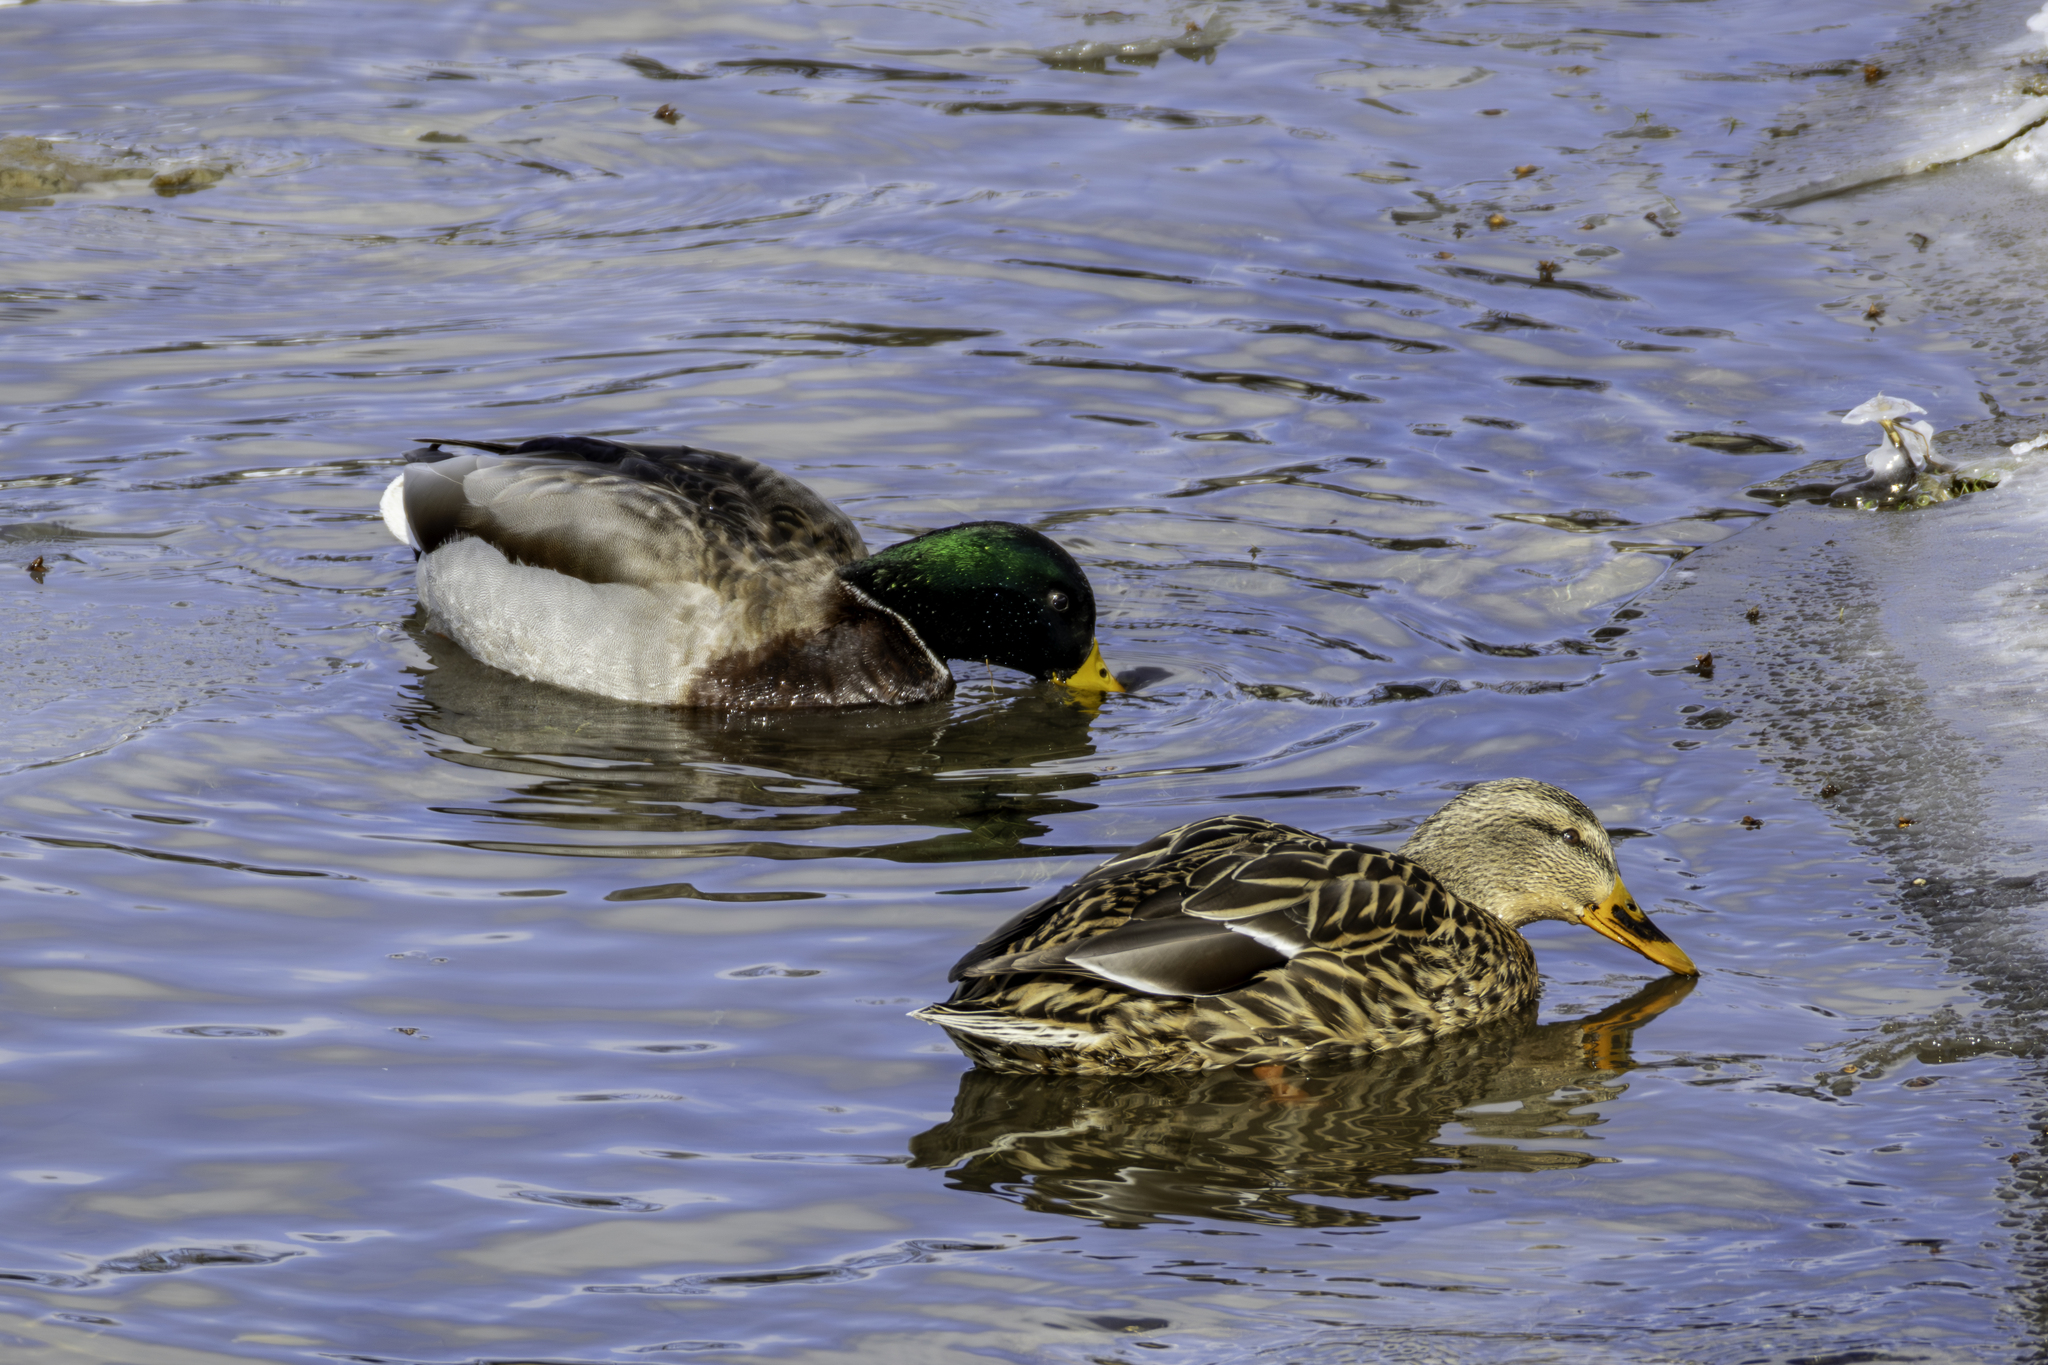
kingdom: Animalia
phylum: Chordata
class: Aves
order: Anseriformes
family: Anatidae
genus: Anas
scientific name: Anas platyrhynchos
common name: Mallard
